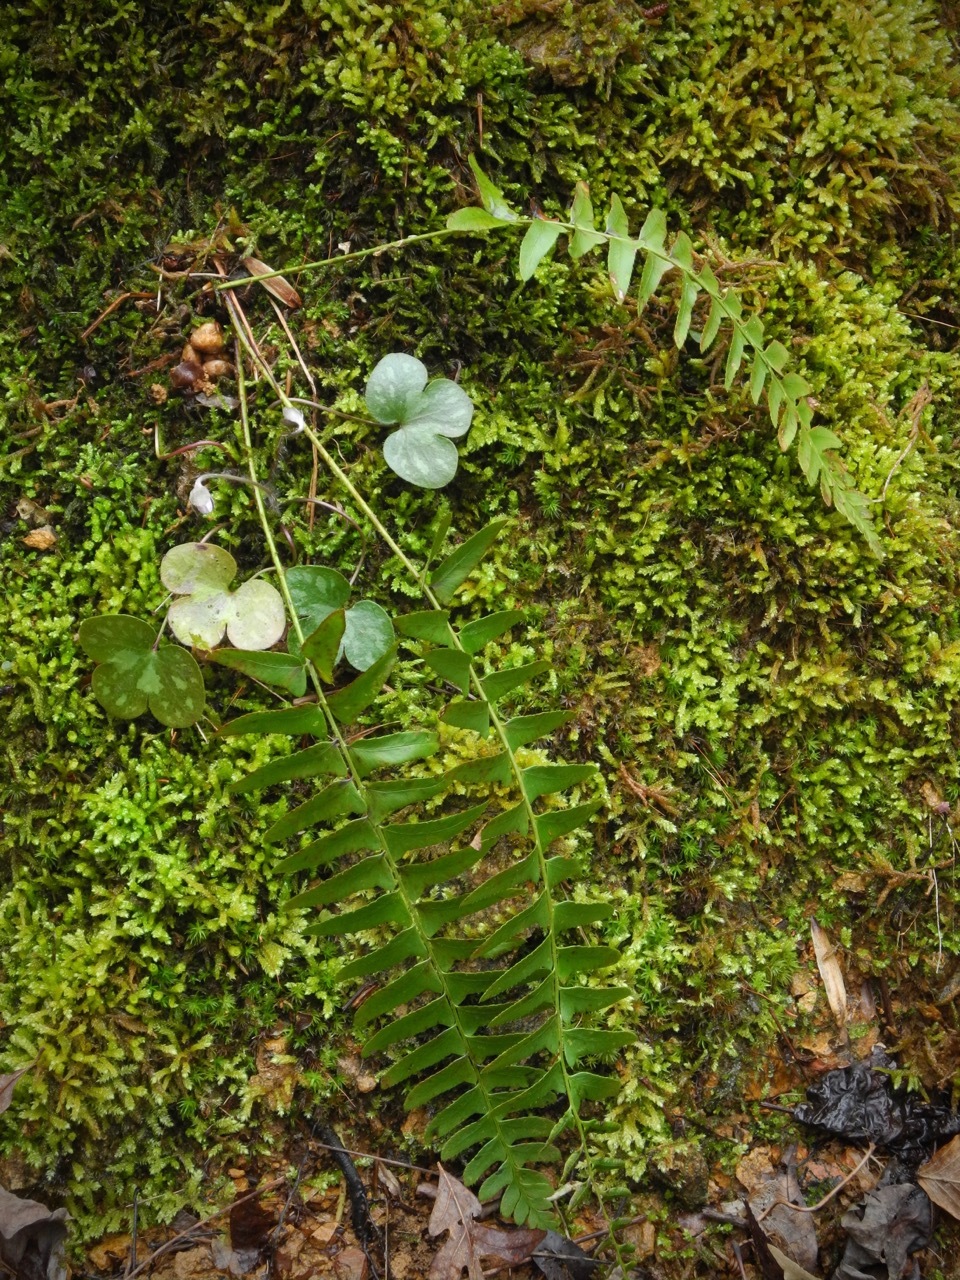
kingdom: Plantae
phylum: Tracheophyta
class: Polypodiopsida
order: Polypodiales
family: Dryopteridaceae
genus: Polystichum
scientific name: Polystichum acrostichoides
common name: Christmas fern
